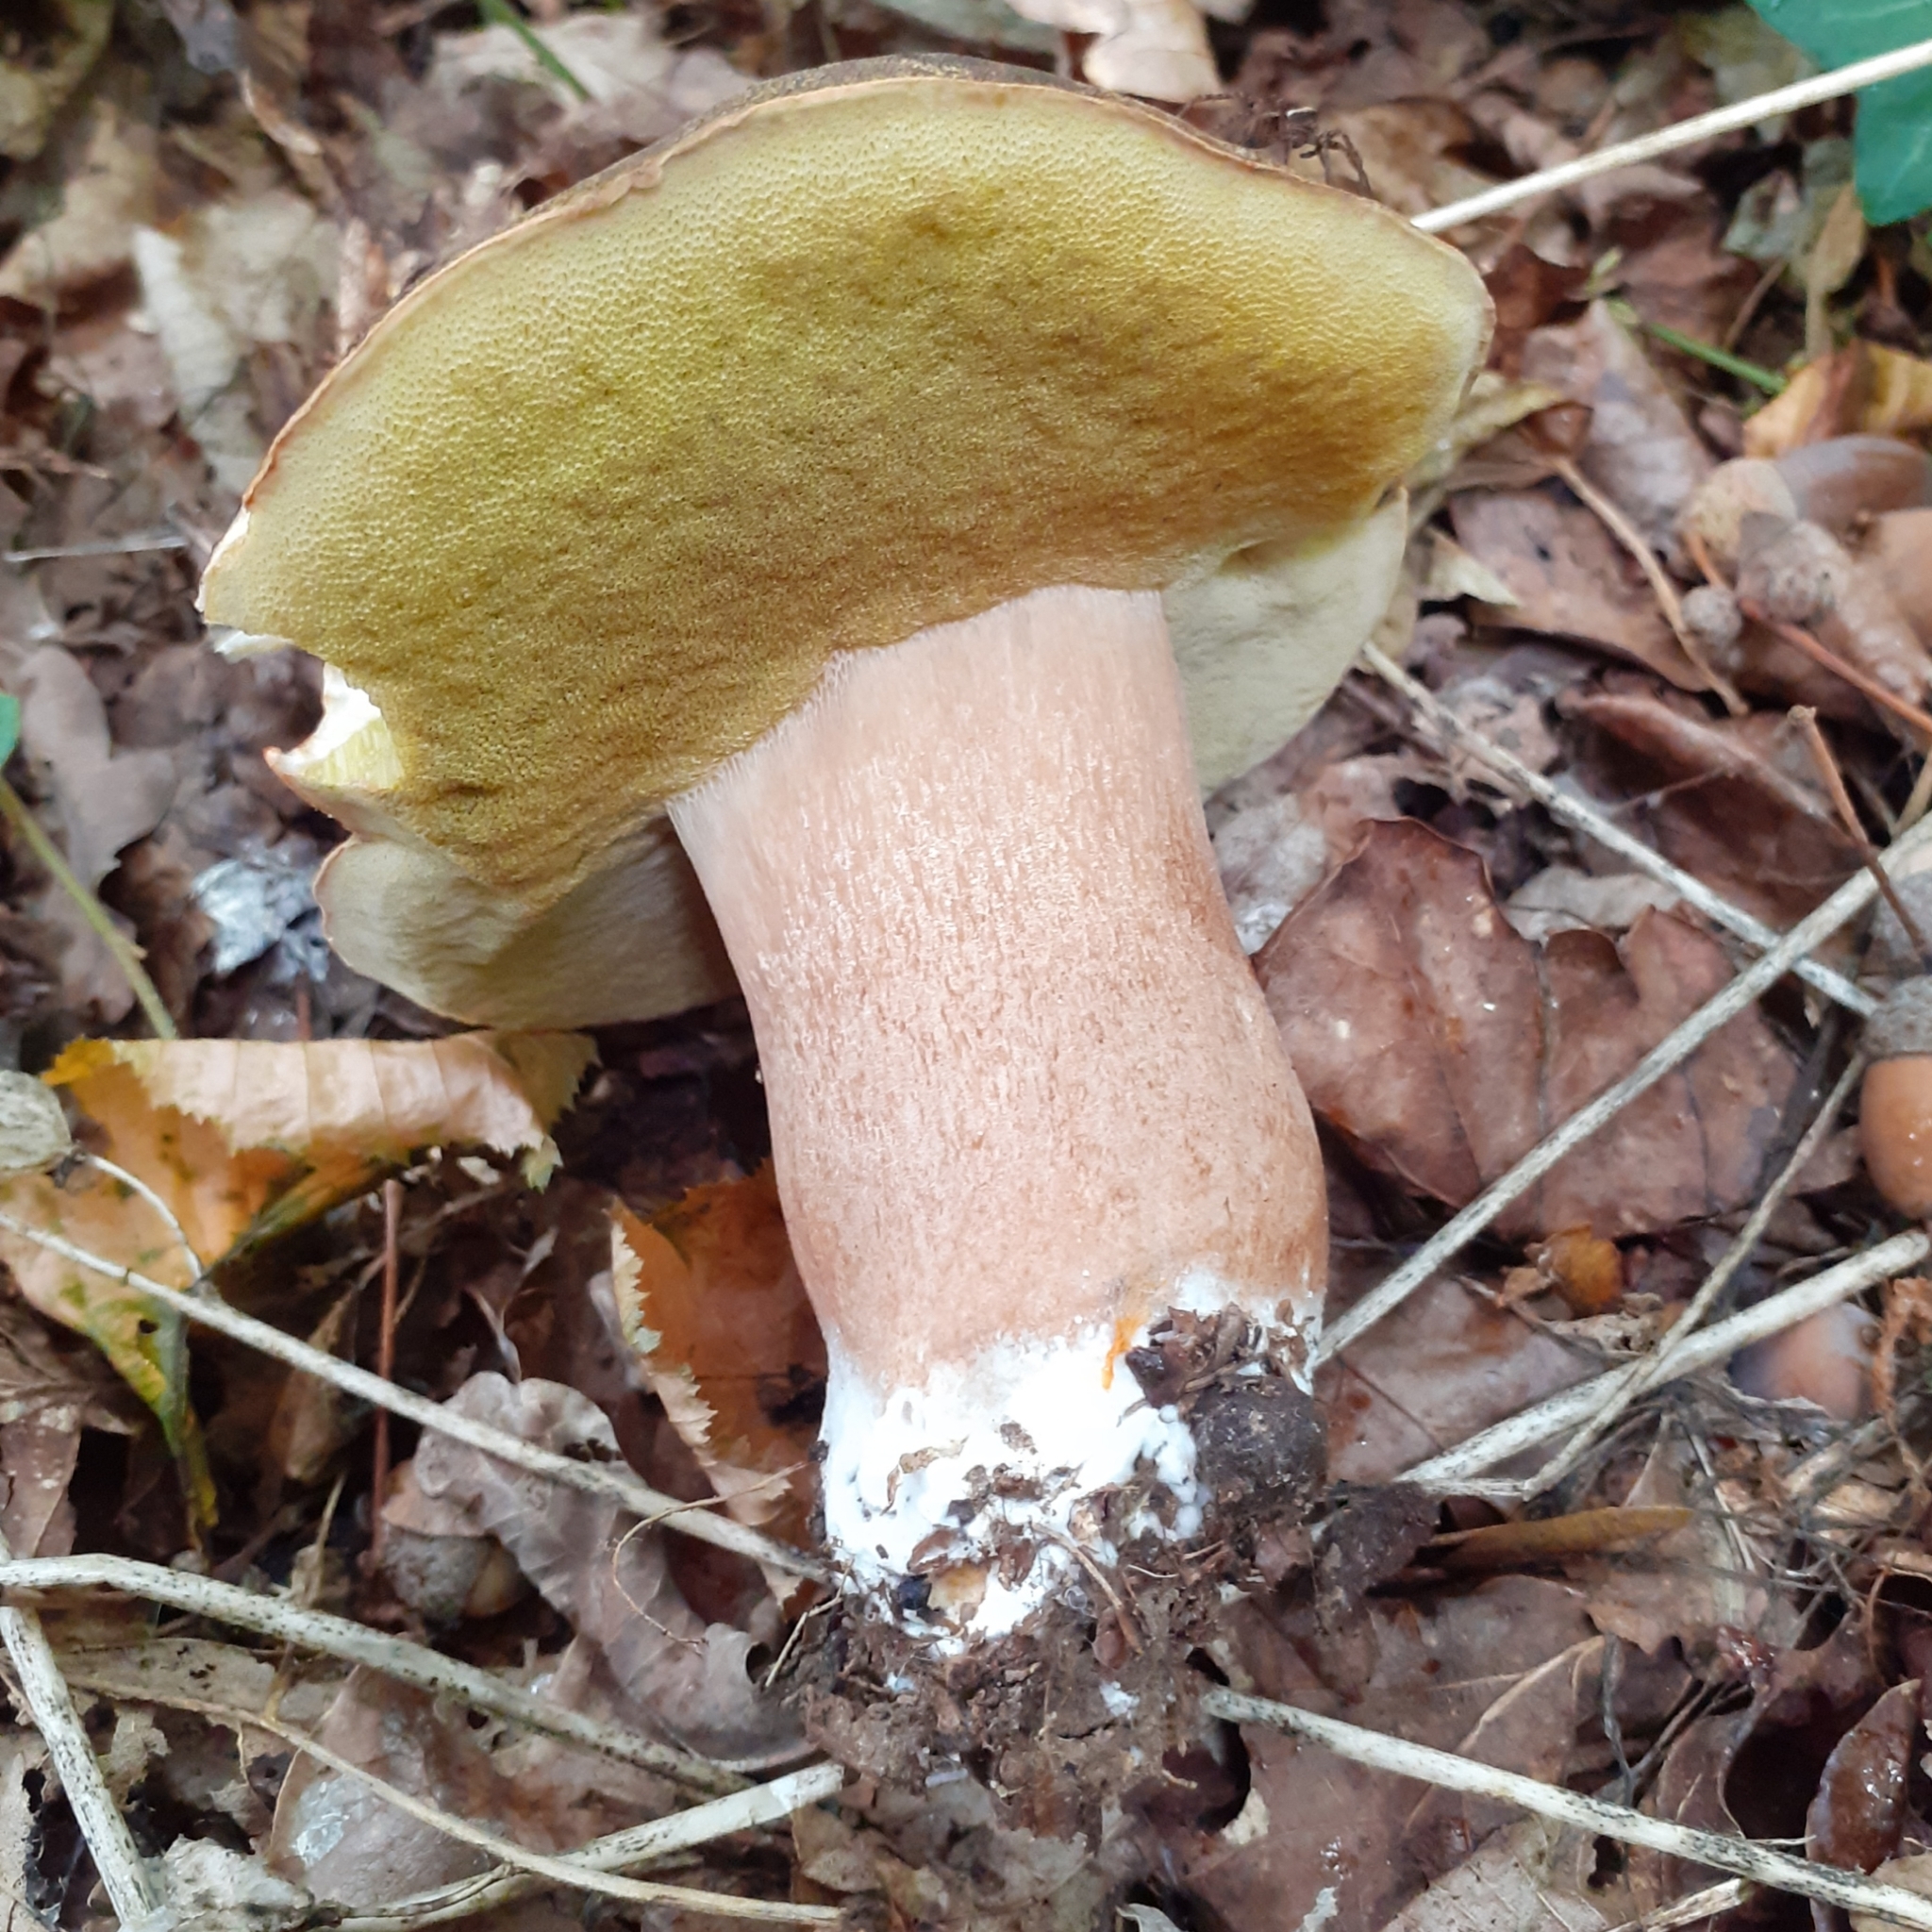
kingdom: Fungi
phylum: Basidiomycota
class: Agaricomycetes
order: Boletales
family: Boletaceae
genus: Boletus
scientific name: Boletus aereus
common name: Bronze bolete
